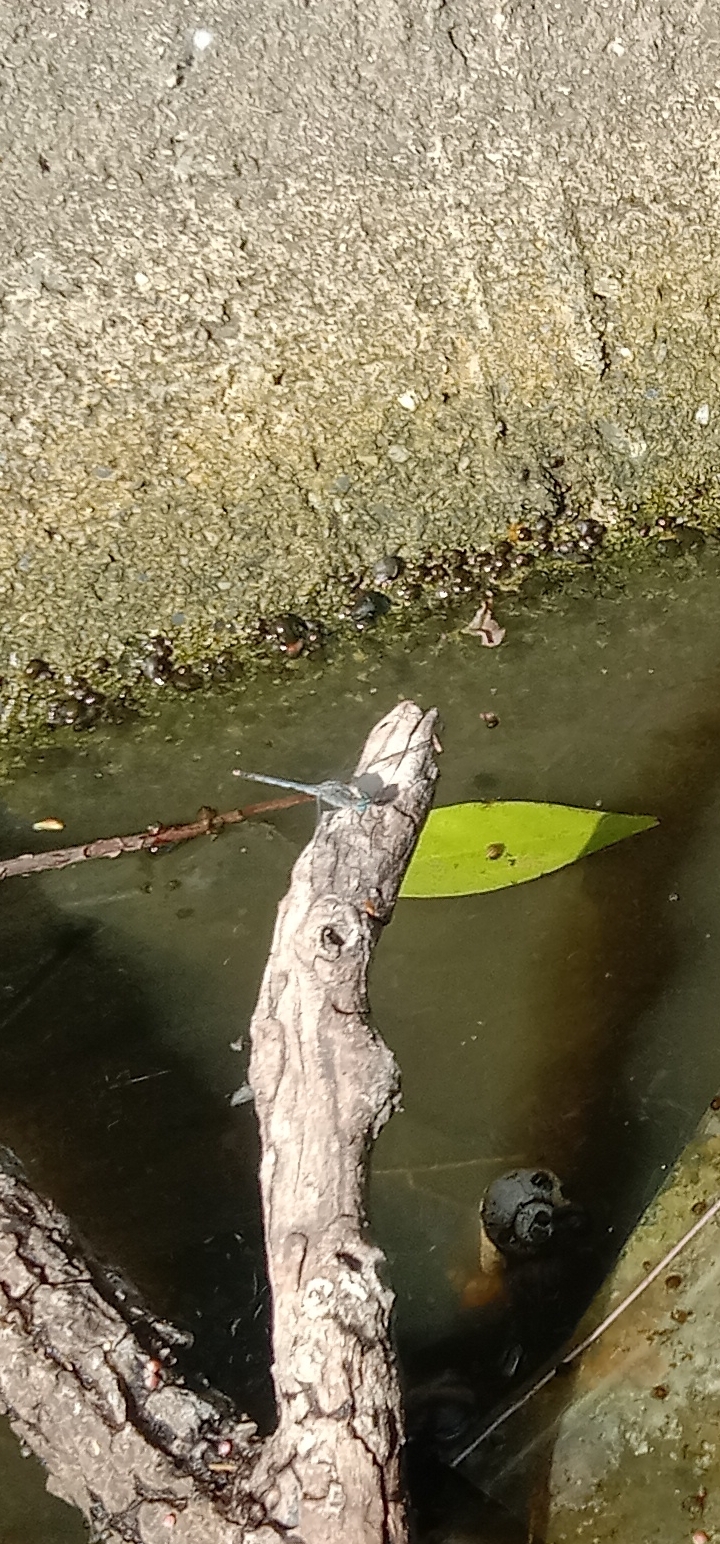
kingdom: Animalia
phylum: Arthropoda
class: Insecta
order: Odonata
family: Libellulidae
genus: Diplacodes
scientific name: Diplacodes trivialis
